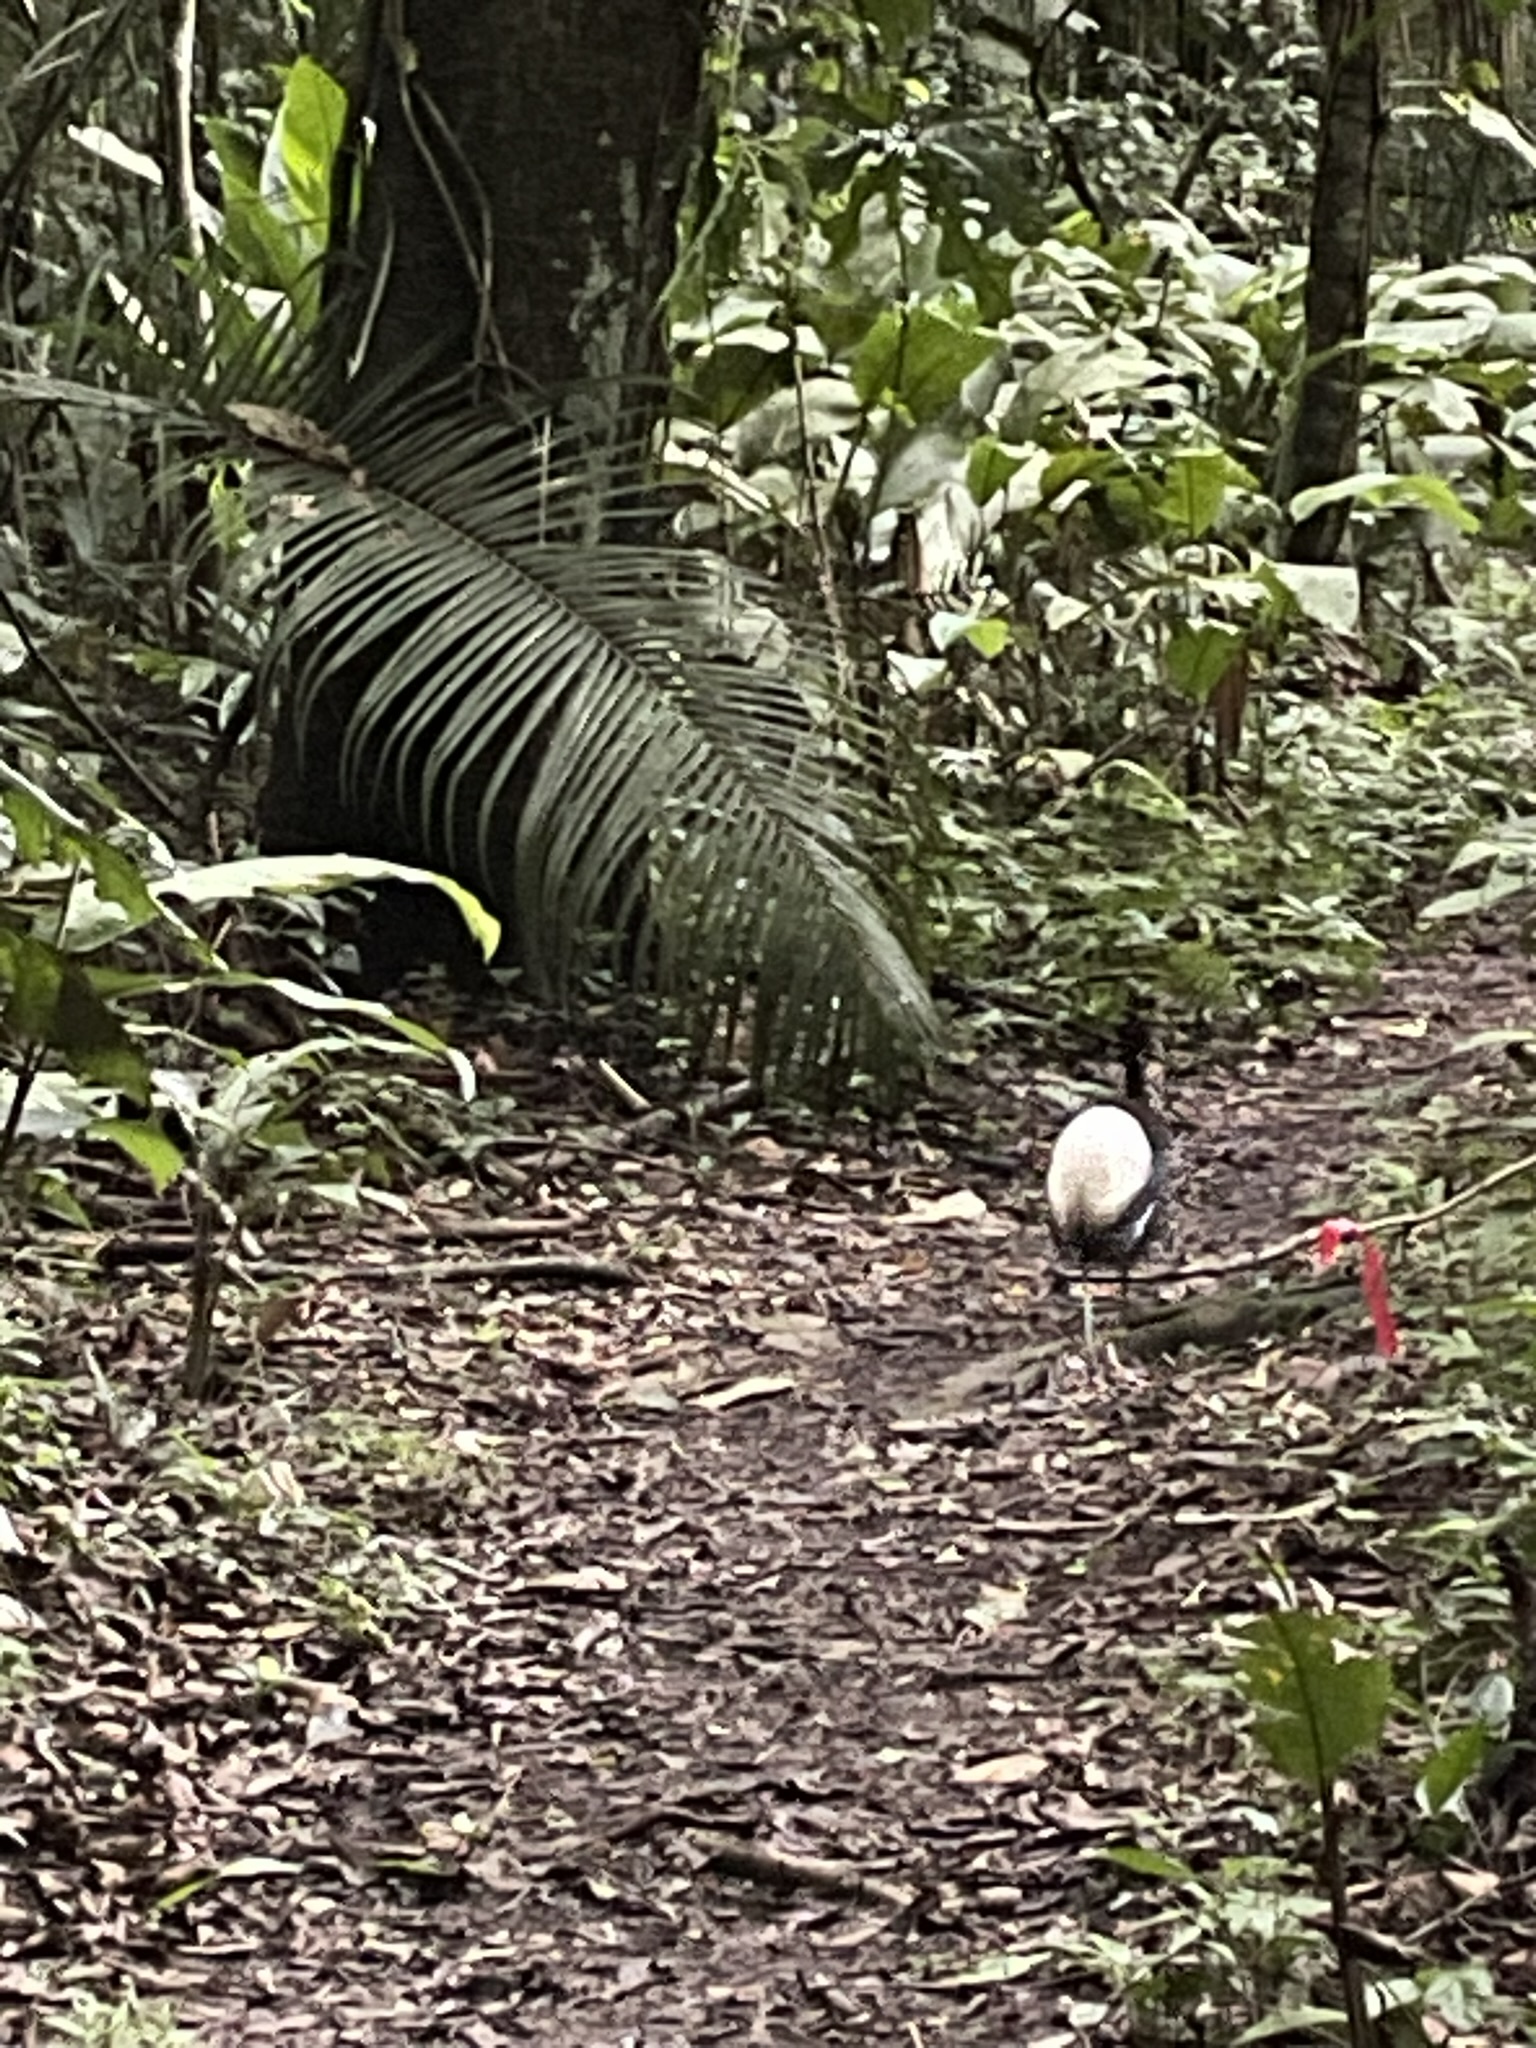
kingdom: Animalia
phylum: Chordata
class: Aves
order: Gruiformes
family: Psophiidae
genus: Psophia
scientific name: Psophia leucoptera
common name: Pale-winged trumpeter
